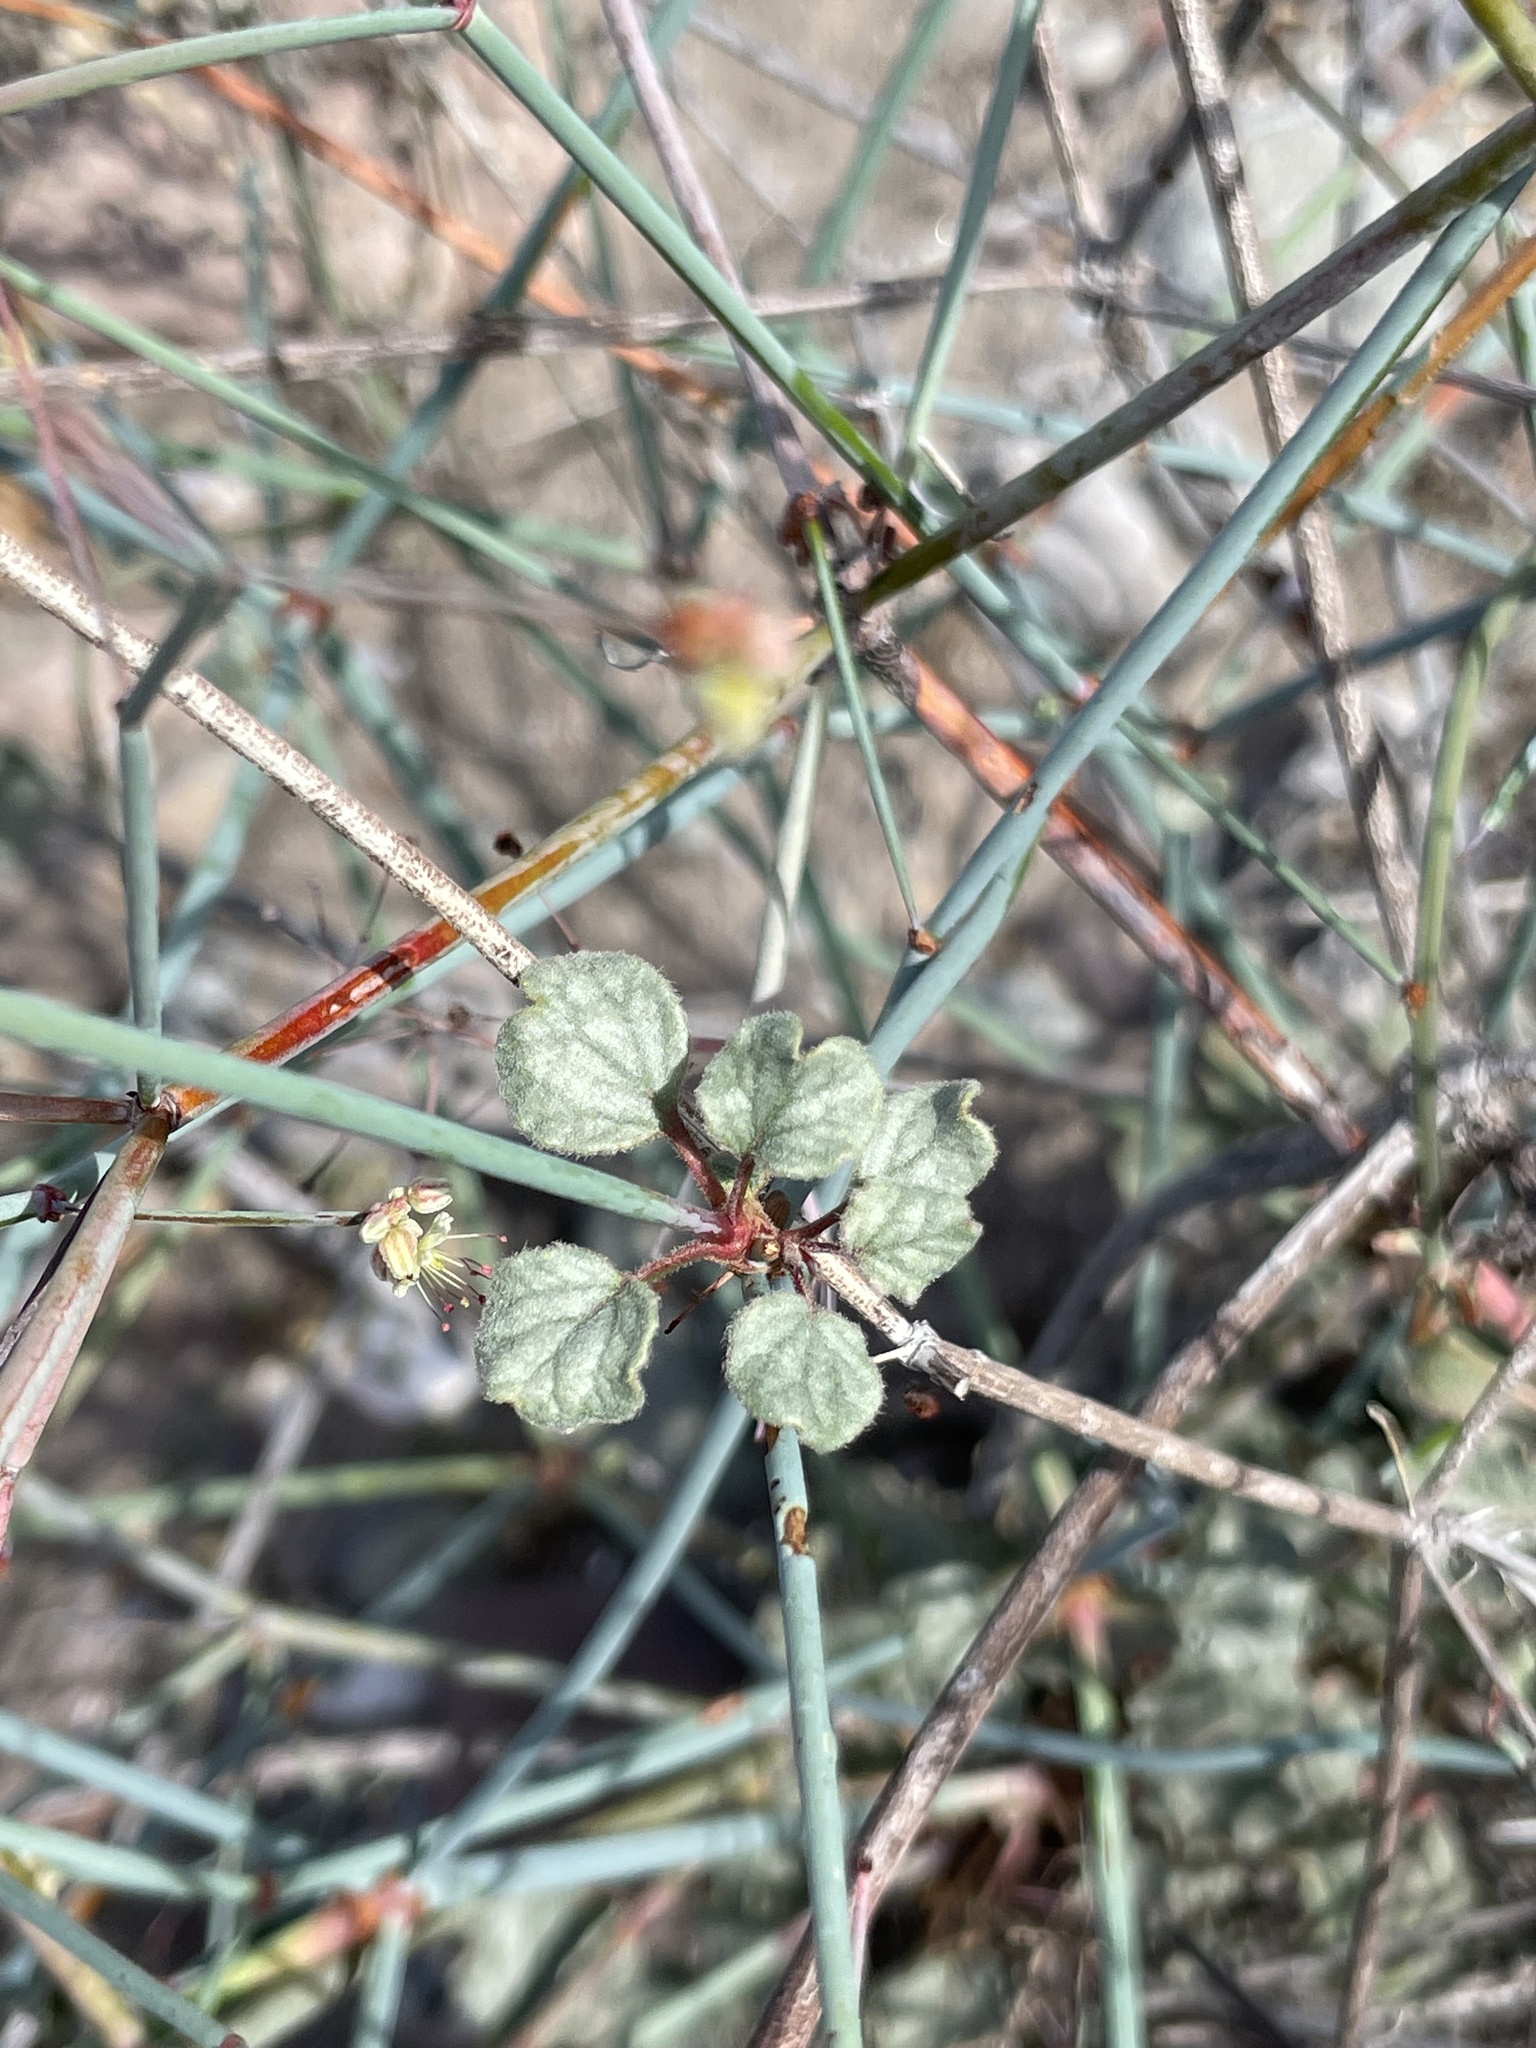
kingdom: Plantae
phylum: Tracheophyta
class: Magnoliopsida
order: Caryophyllales
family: Polygonaceae
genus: Eriogonum
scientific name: Eriogonum inflatum
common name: Desert trumpet
